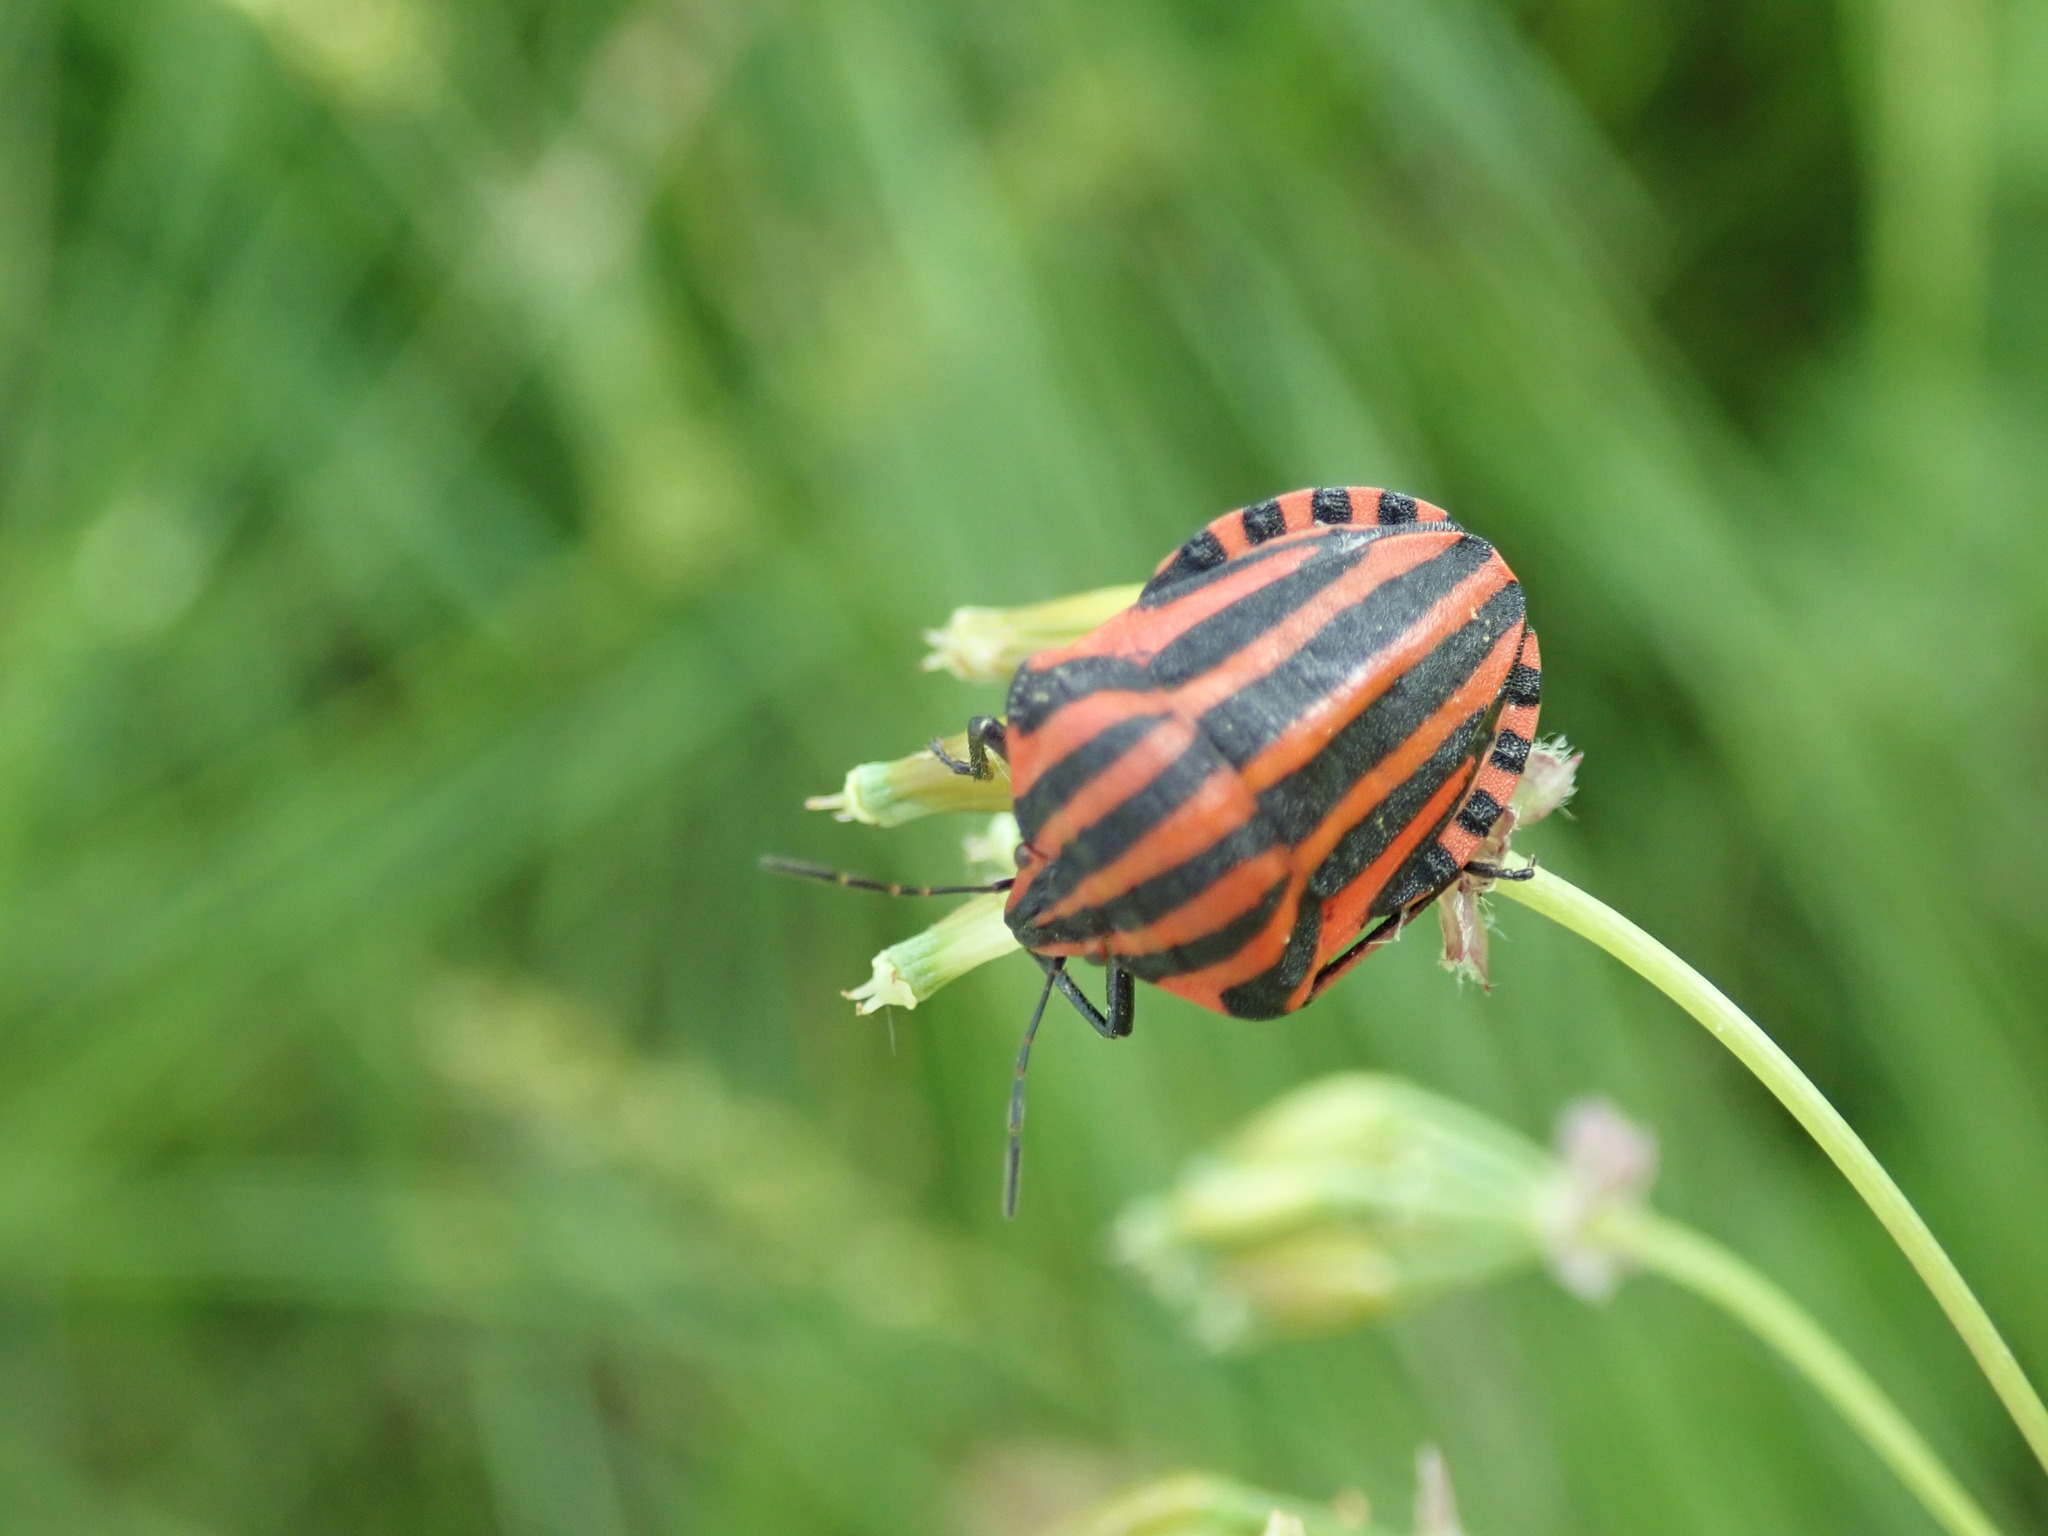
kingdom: Animalia
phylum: Arthropoda
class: Insecta
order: Hemiptera
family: Pentatomidae
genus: Graphosoma
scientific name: Graphosoma italicum
